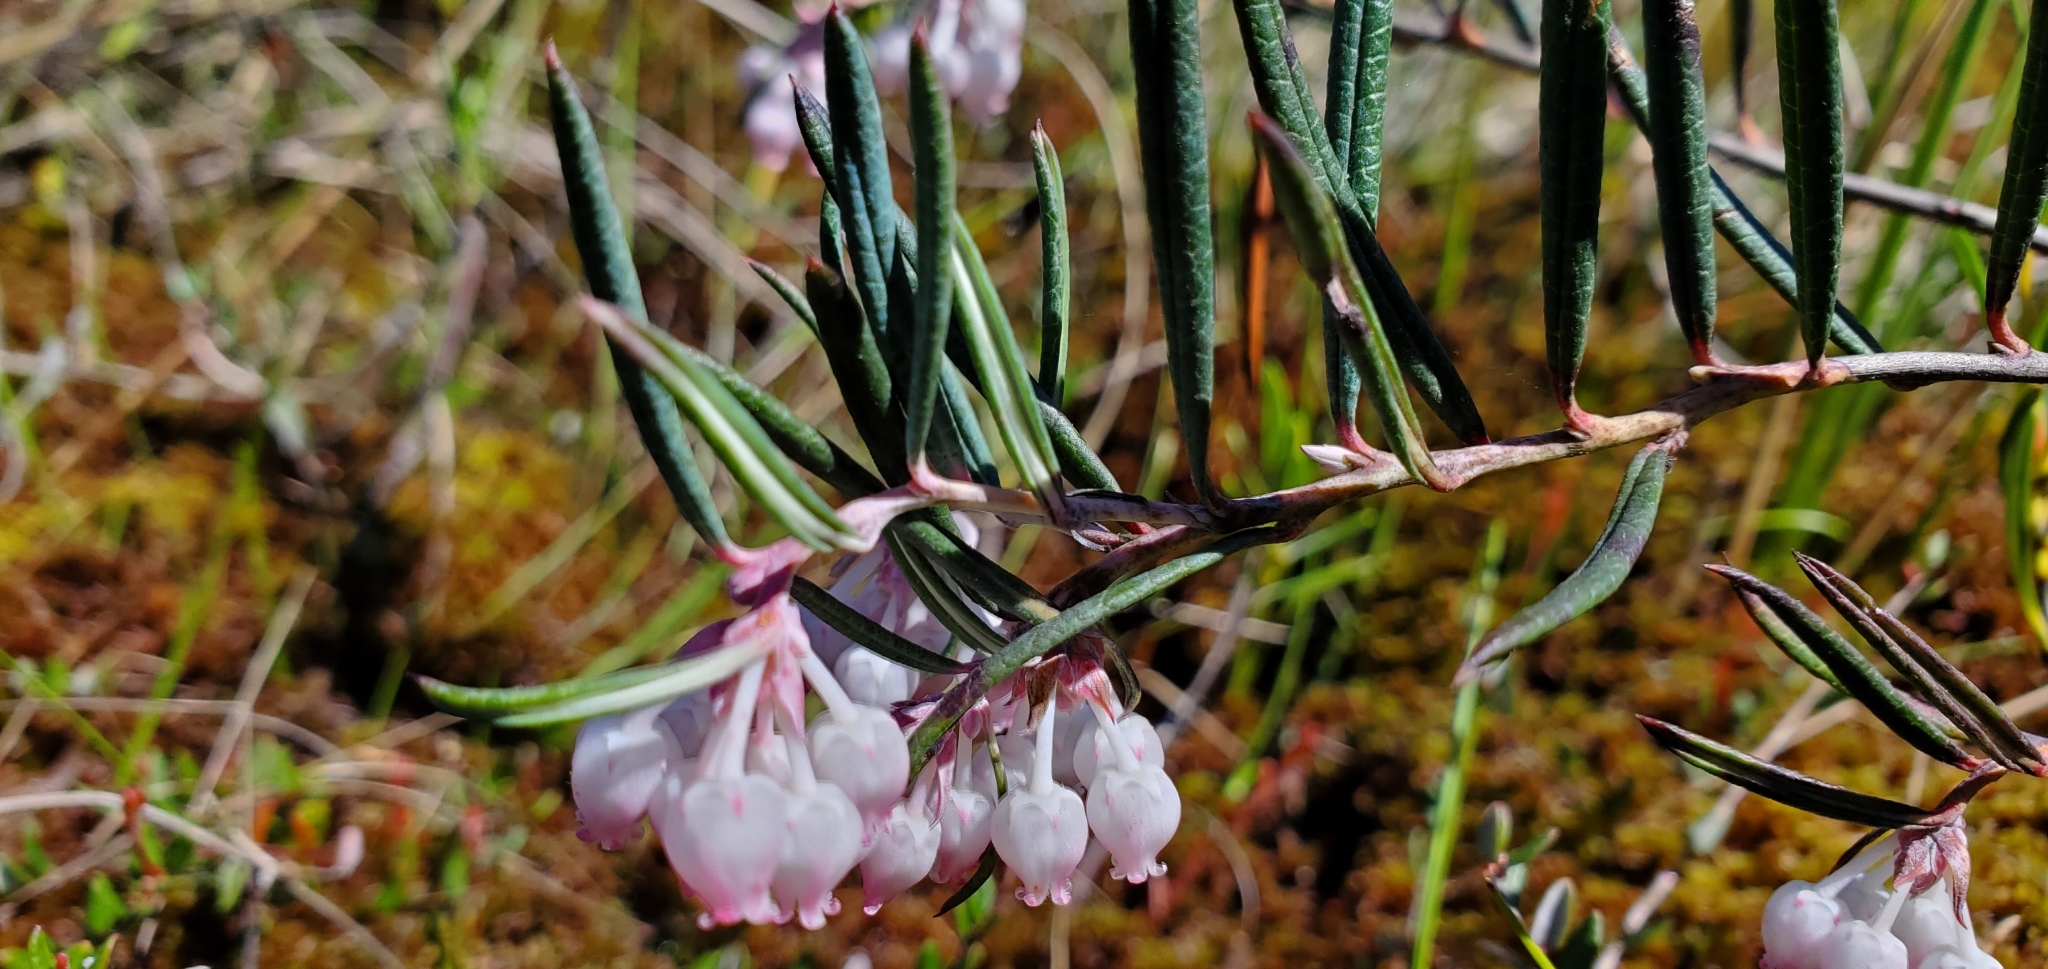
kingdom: Plantae
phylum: Tracheophyta
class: Magnoliopsida
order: Ericales
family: Ericaceae
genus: Andromeda
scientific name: Andromeda polifolia
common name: Bog-rosemary
